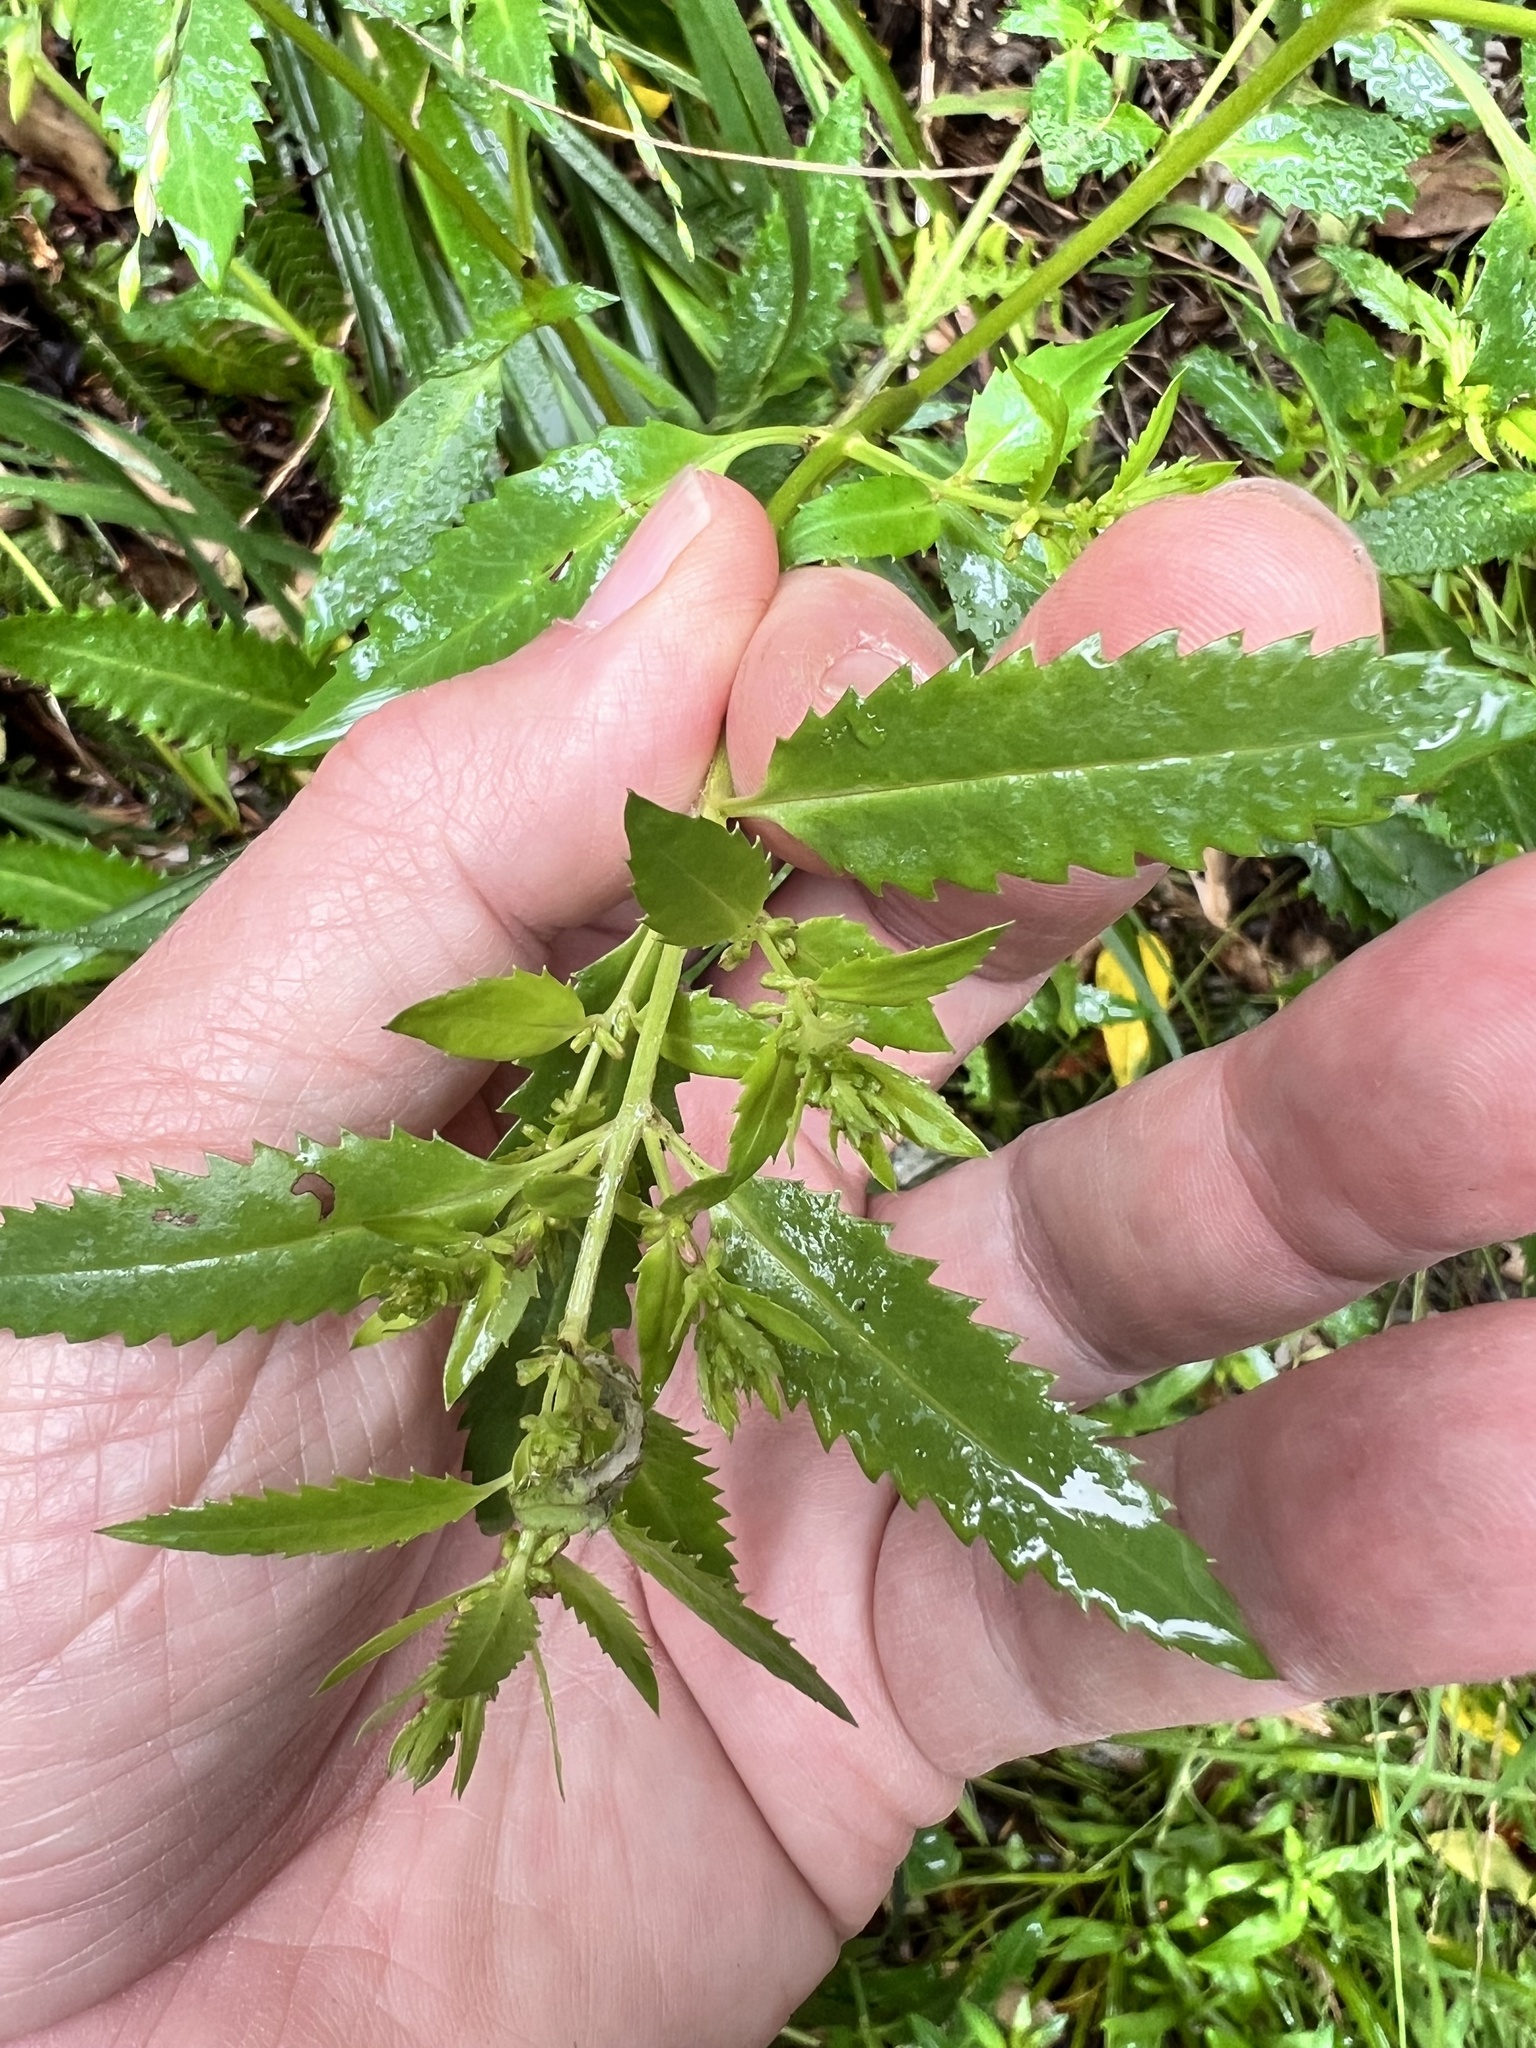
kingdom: Plantae
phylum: Tracheophyta
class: Magnoliopsida
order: Saxifragales
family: Haloragaceae
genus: Haloragis
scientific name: Haloragis erecta
